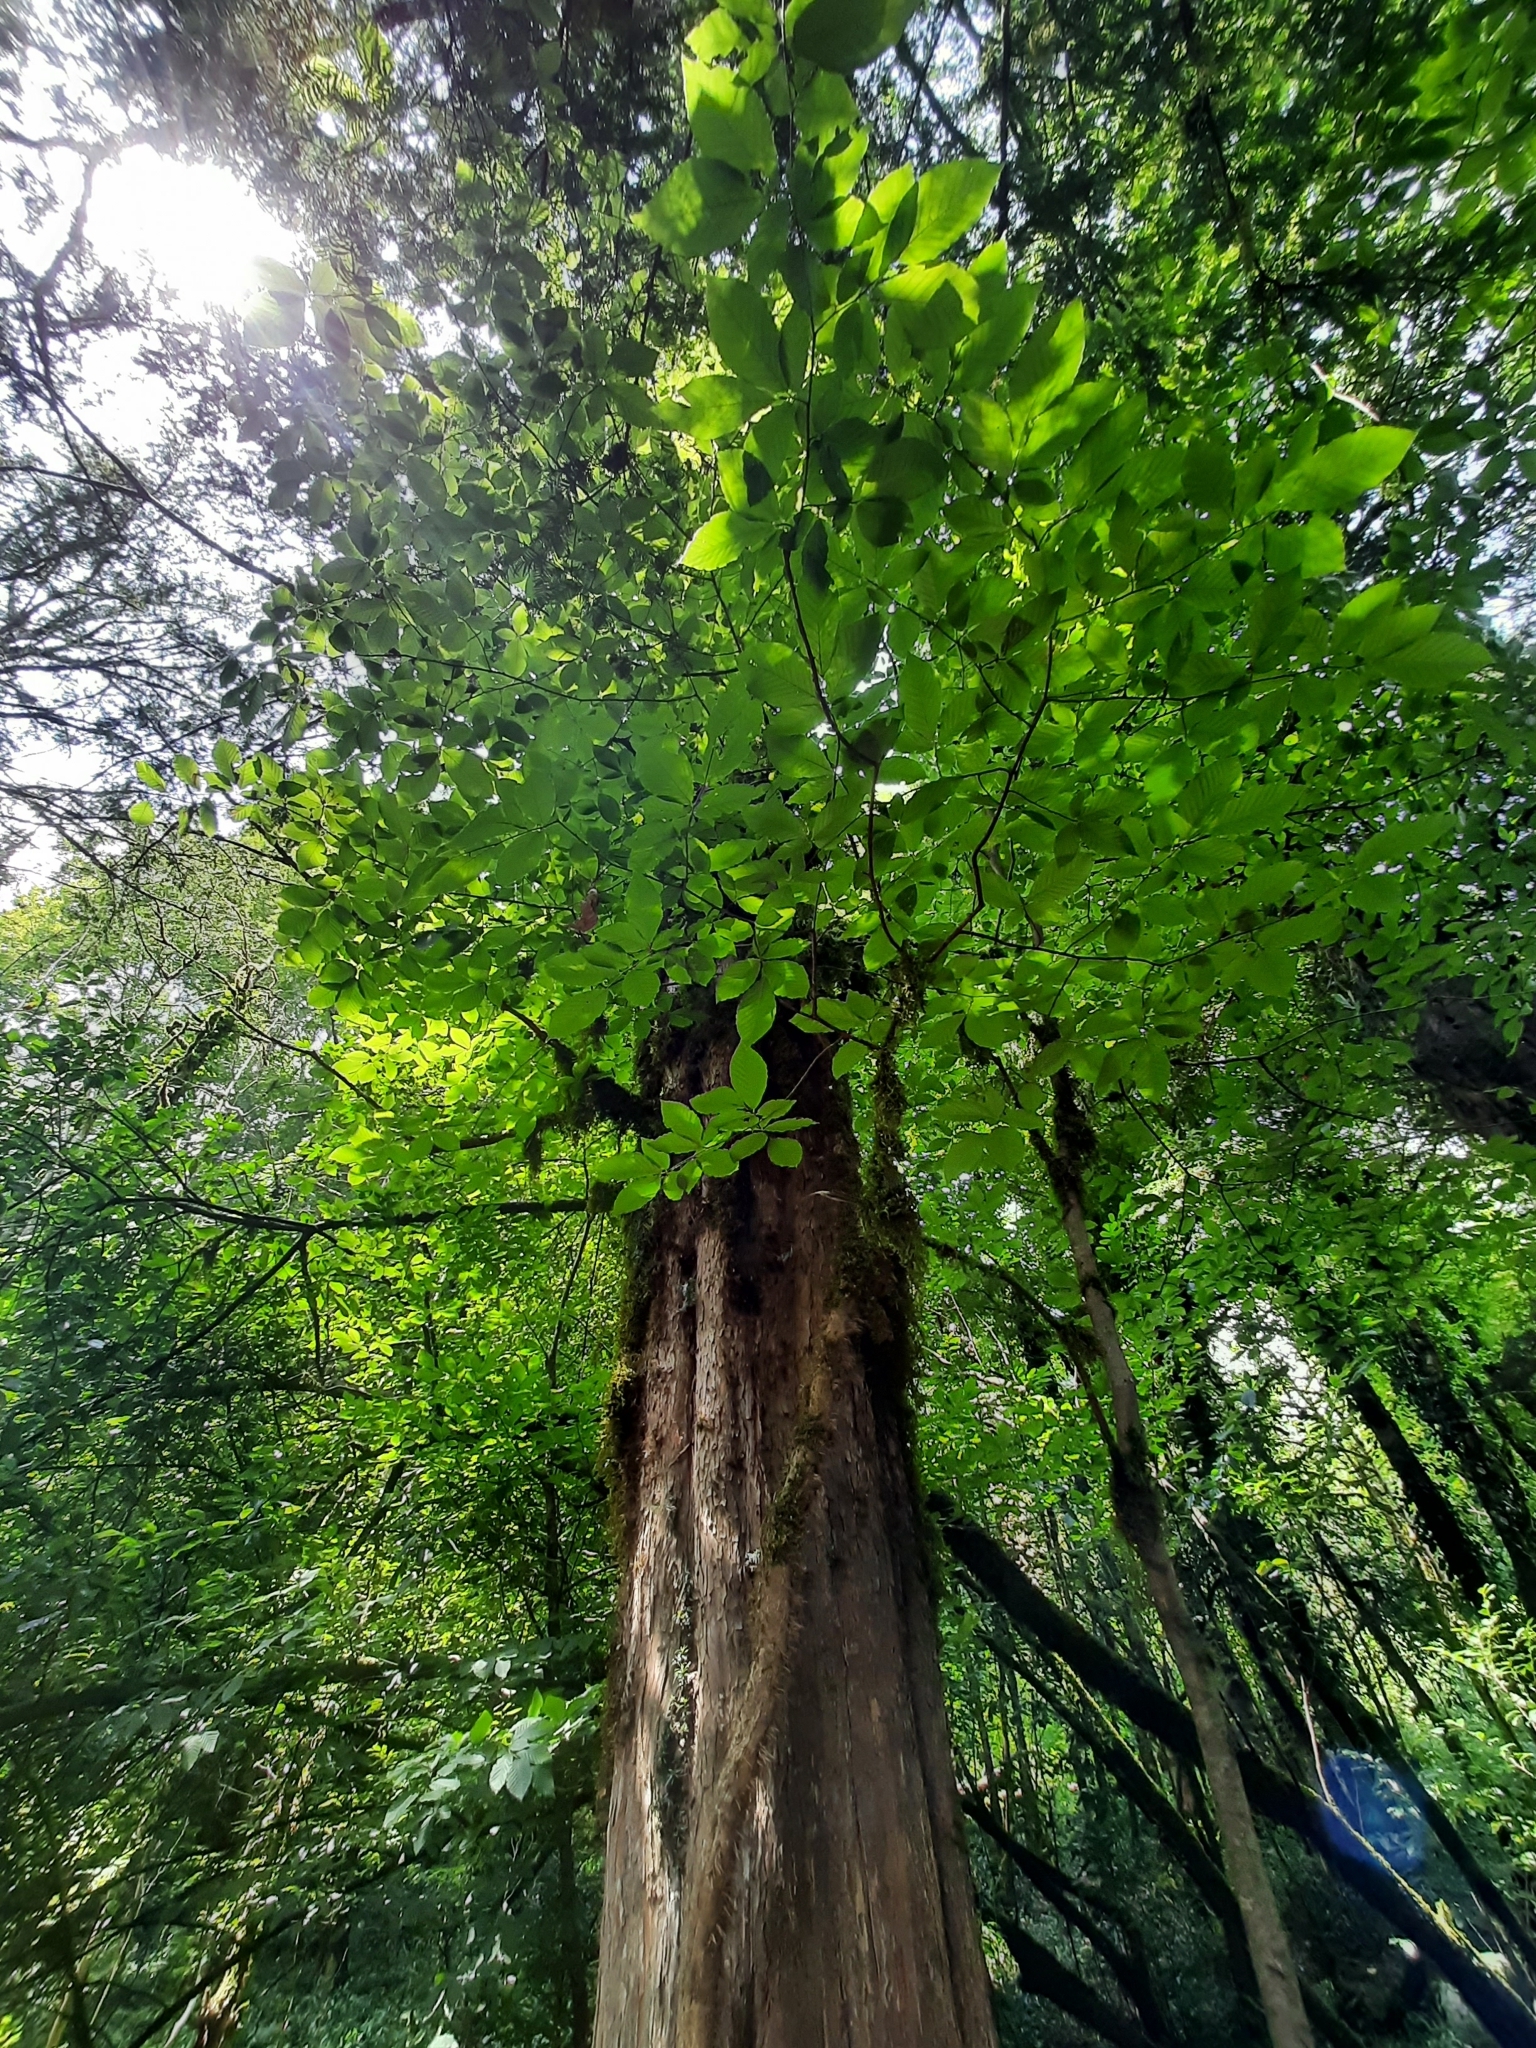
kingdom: Plantae
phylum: Tracheophyta
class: Pinopsida
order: Pinales
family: Taxaceae
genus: Taxus
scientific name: Taxus baccata
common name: Yew
